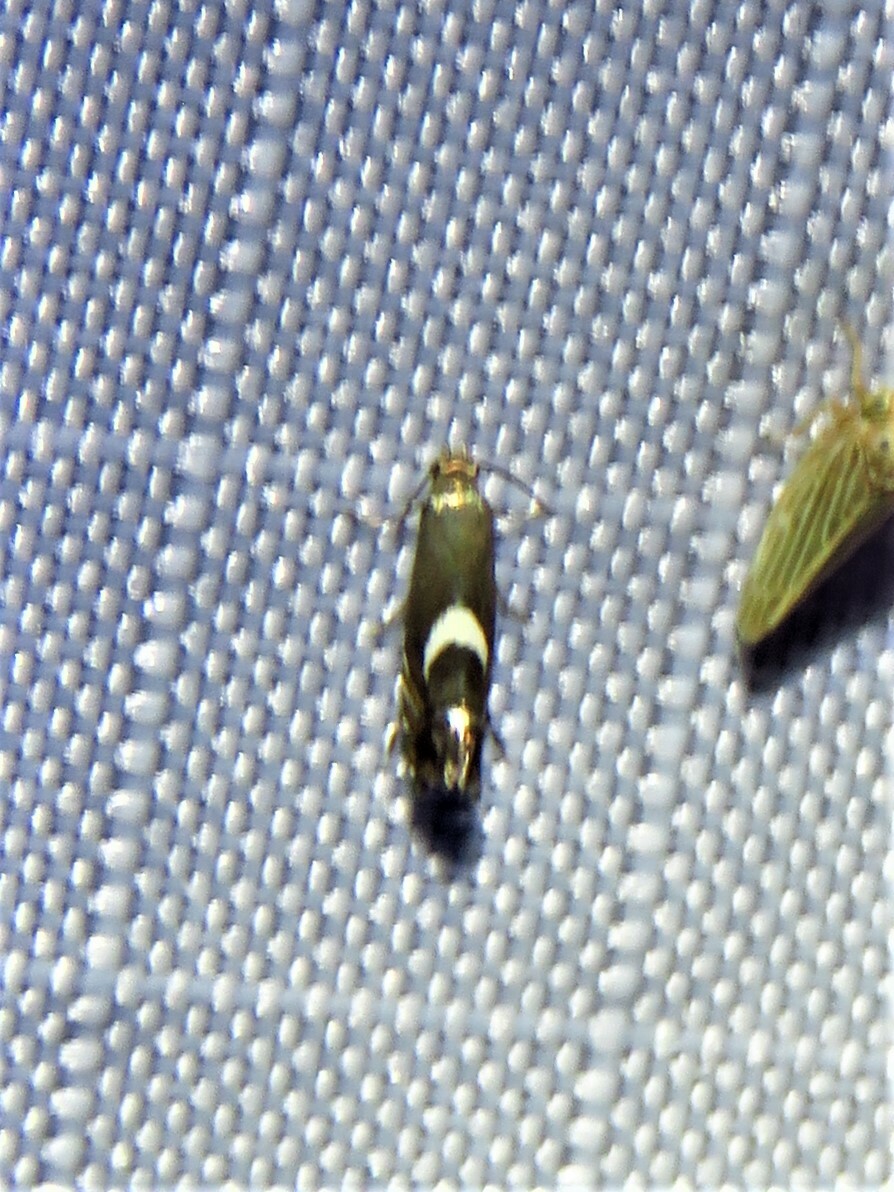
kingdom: Animalia
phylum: Arthropoda
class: Insecta
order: Lepidoptera
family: Glyphipterigidae
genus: Glyphipterix
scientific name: Glyphipterix Diploschizia impigritella
